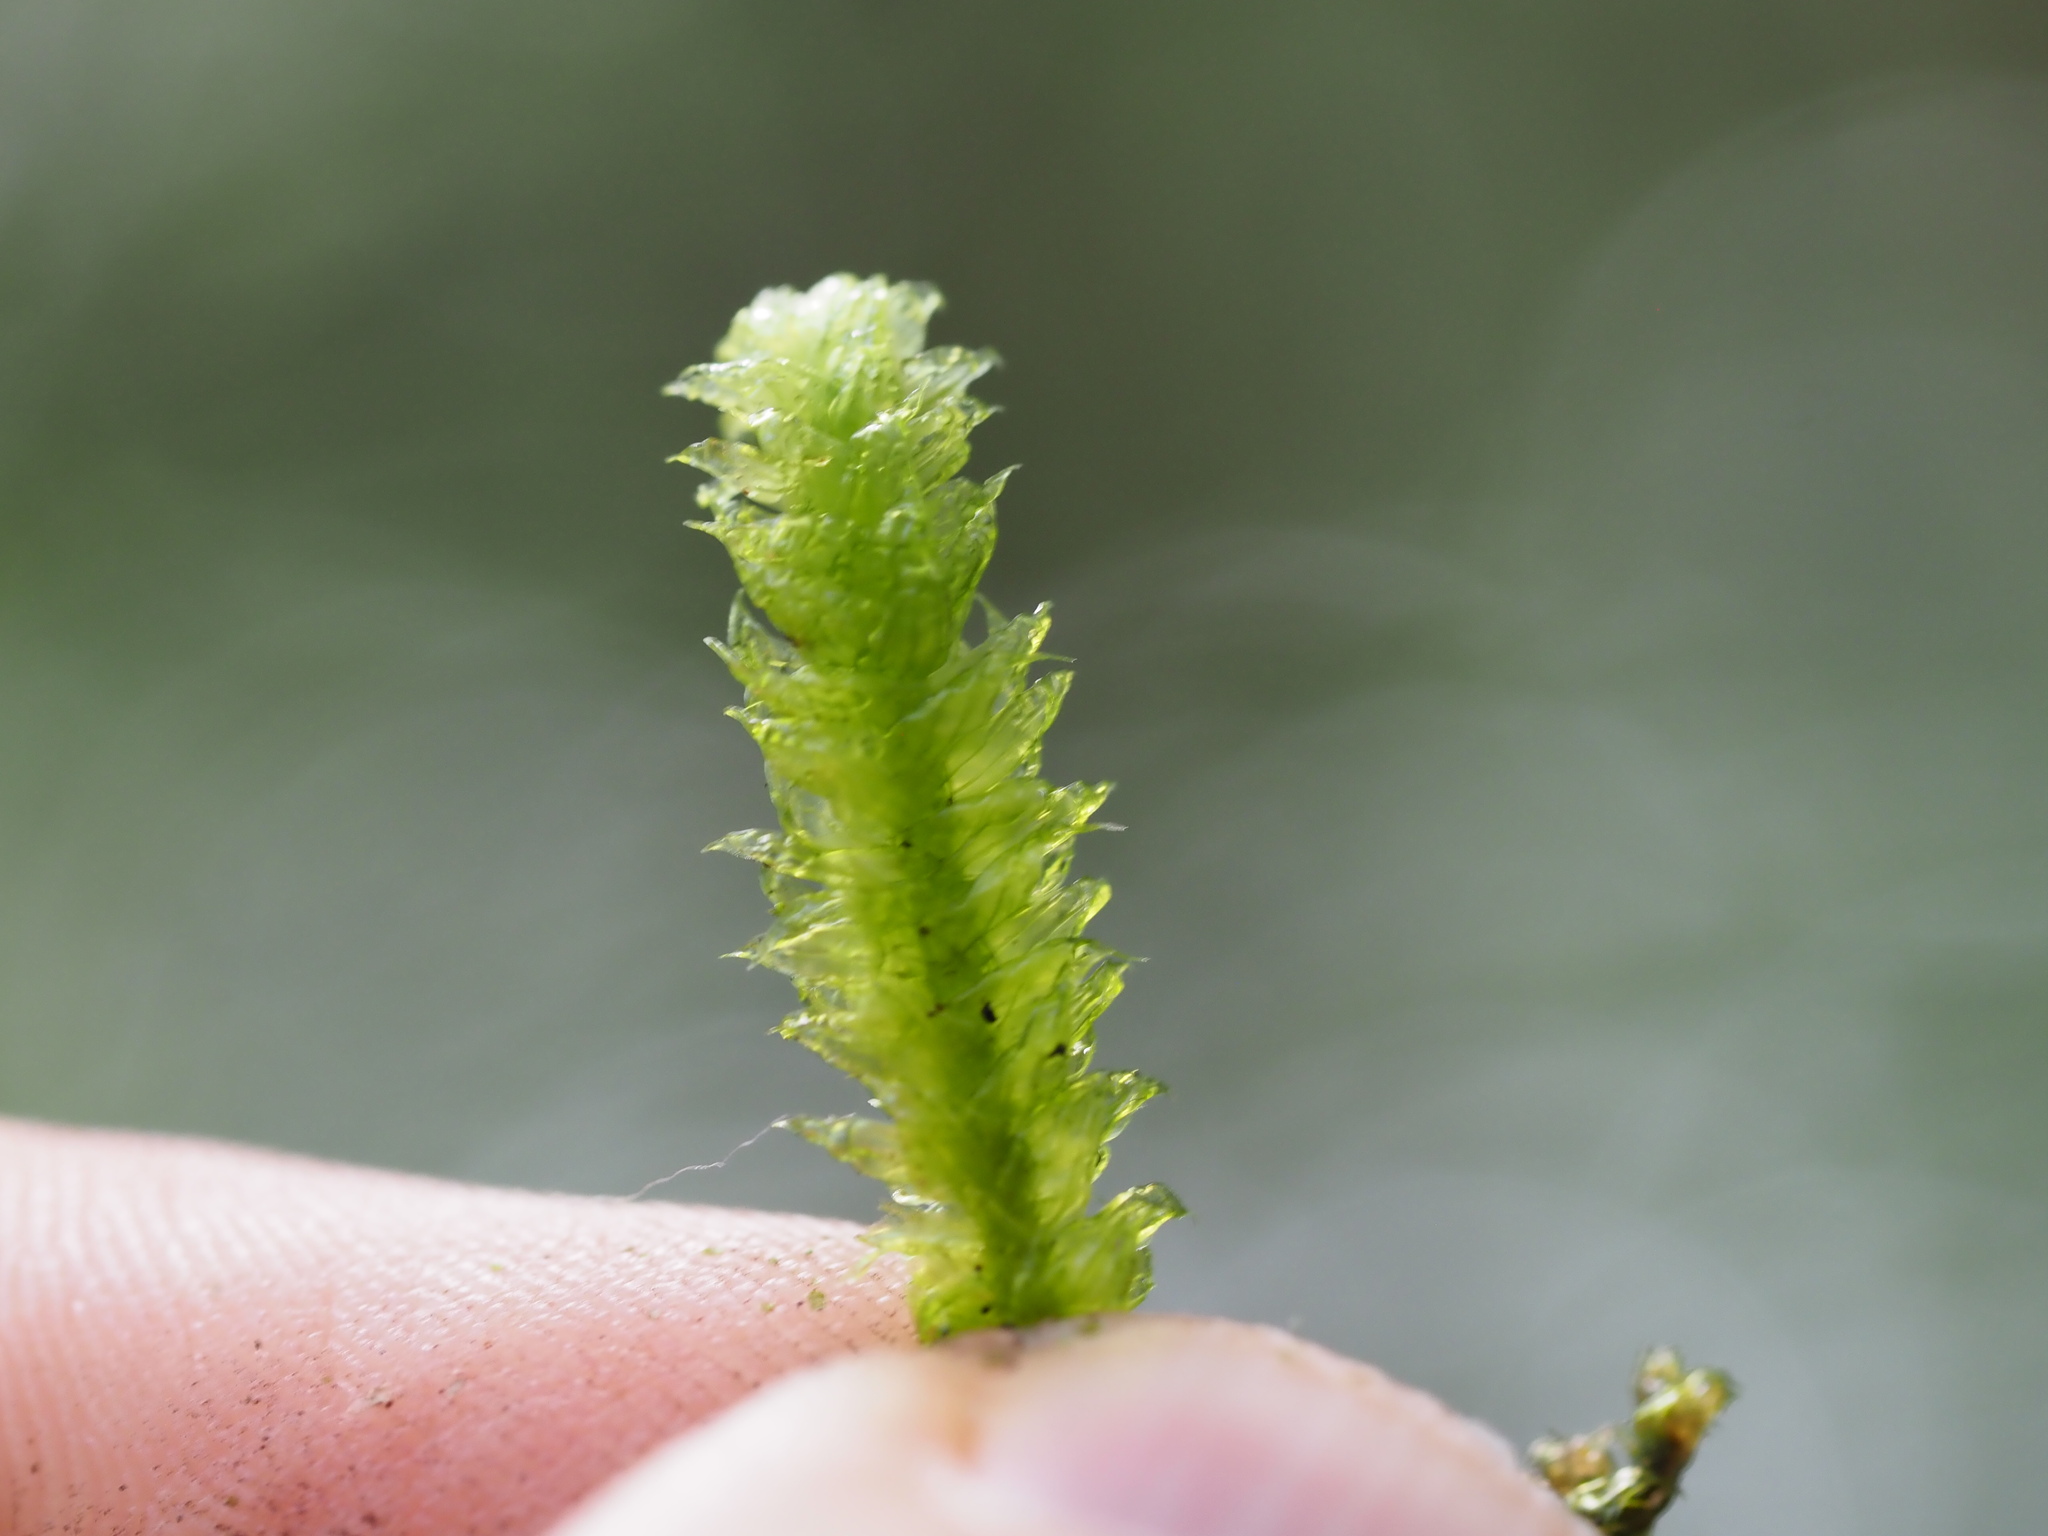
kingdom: Plantae
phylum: Bryophyta
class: Bryopsida
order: Hypnales
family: Hylocomiaceae
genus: Rhytidiopsis
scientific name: Rhytidiopsis robusta
